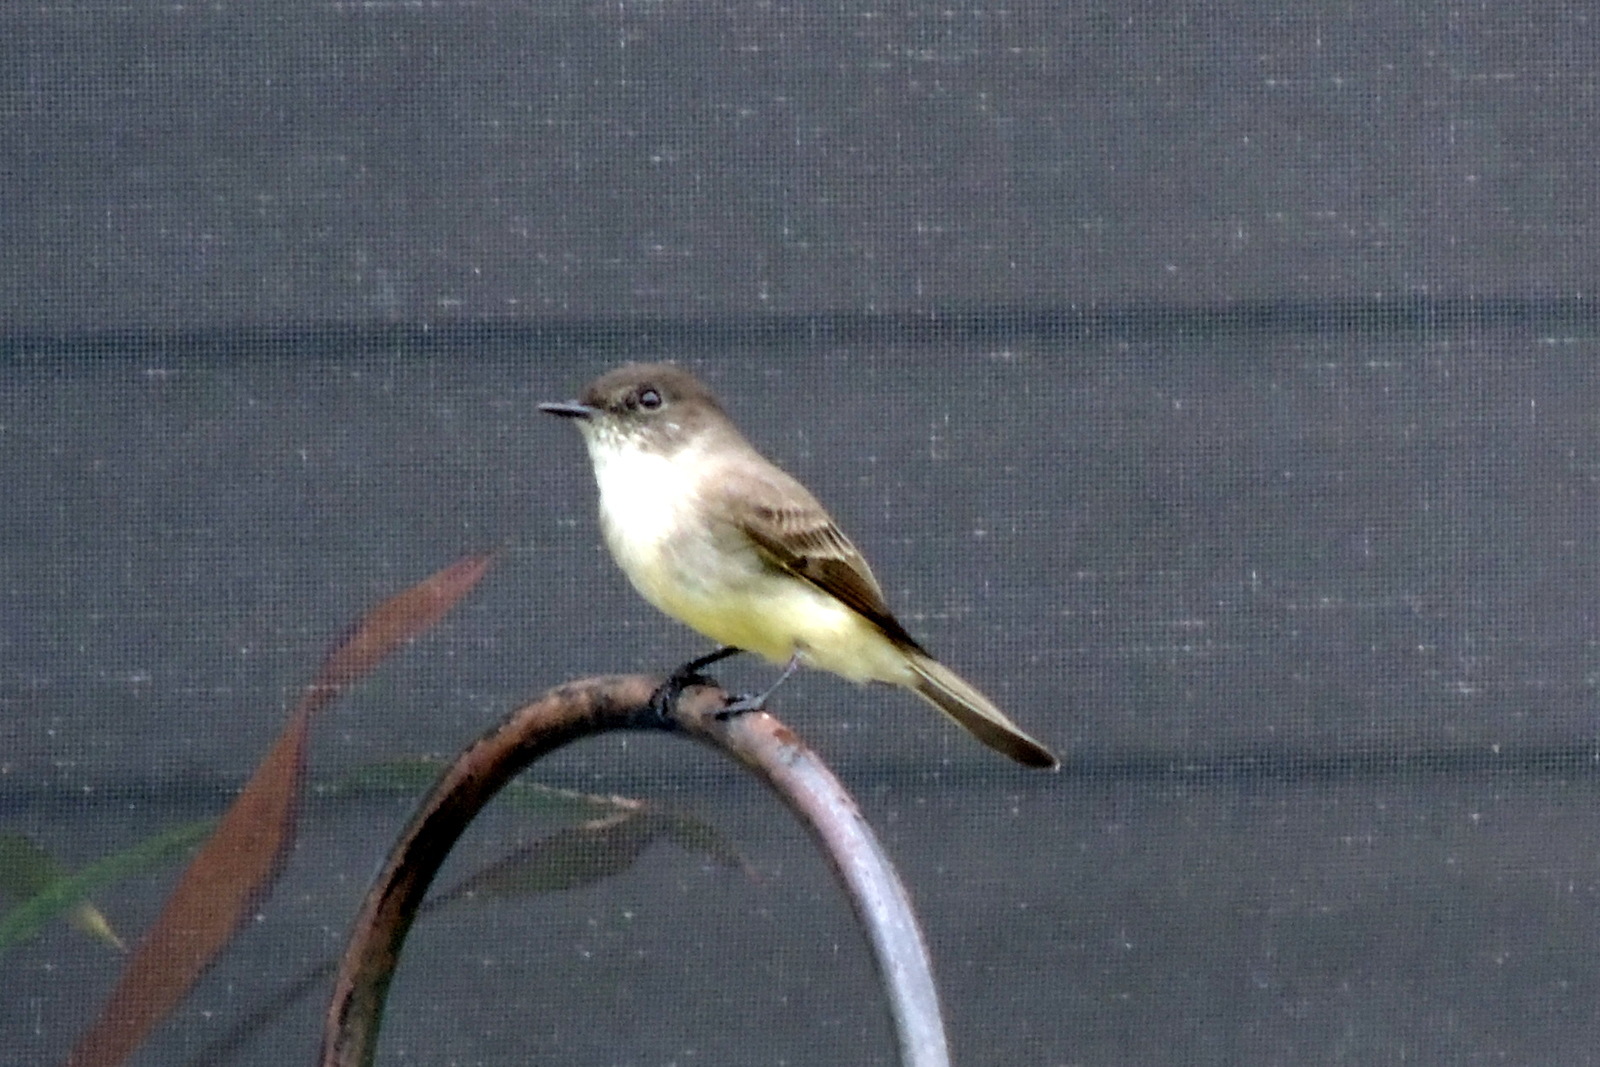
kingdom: Animalia
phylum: Chordata
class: Aves
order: Passeriformes
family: Tyrannidae
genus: Sayornis
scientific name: Sayornis phoebe
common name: Eastern phoebe
